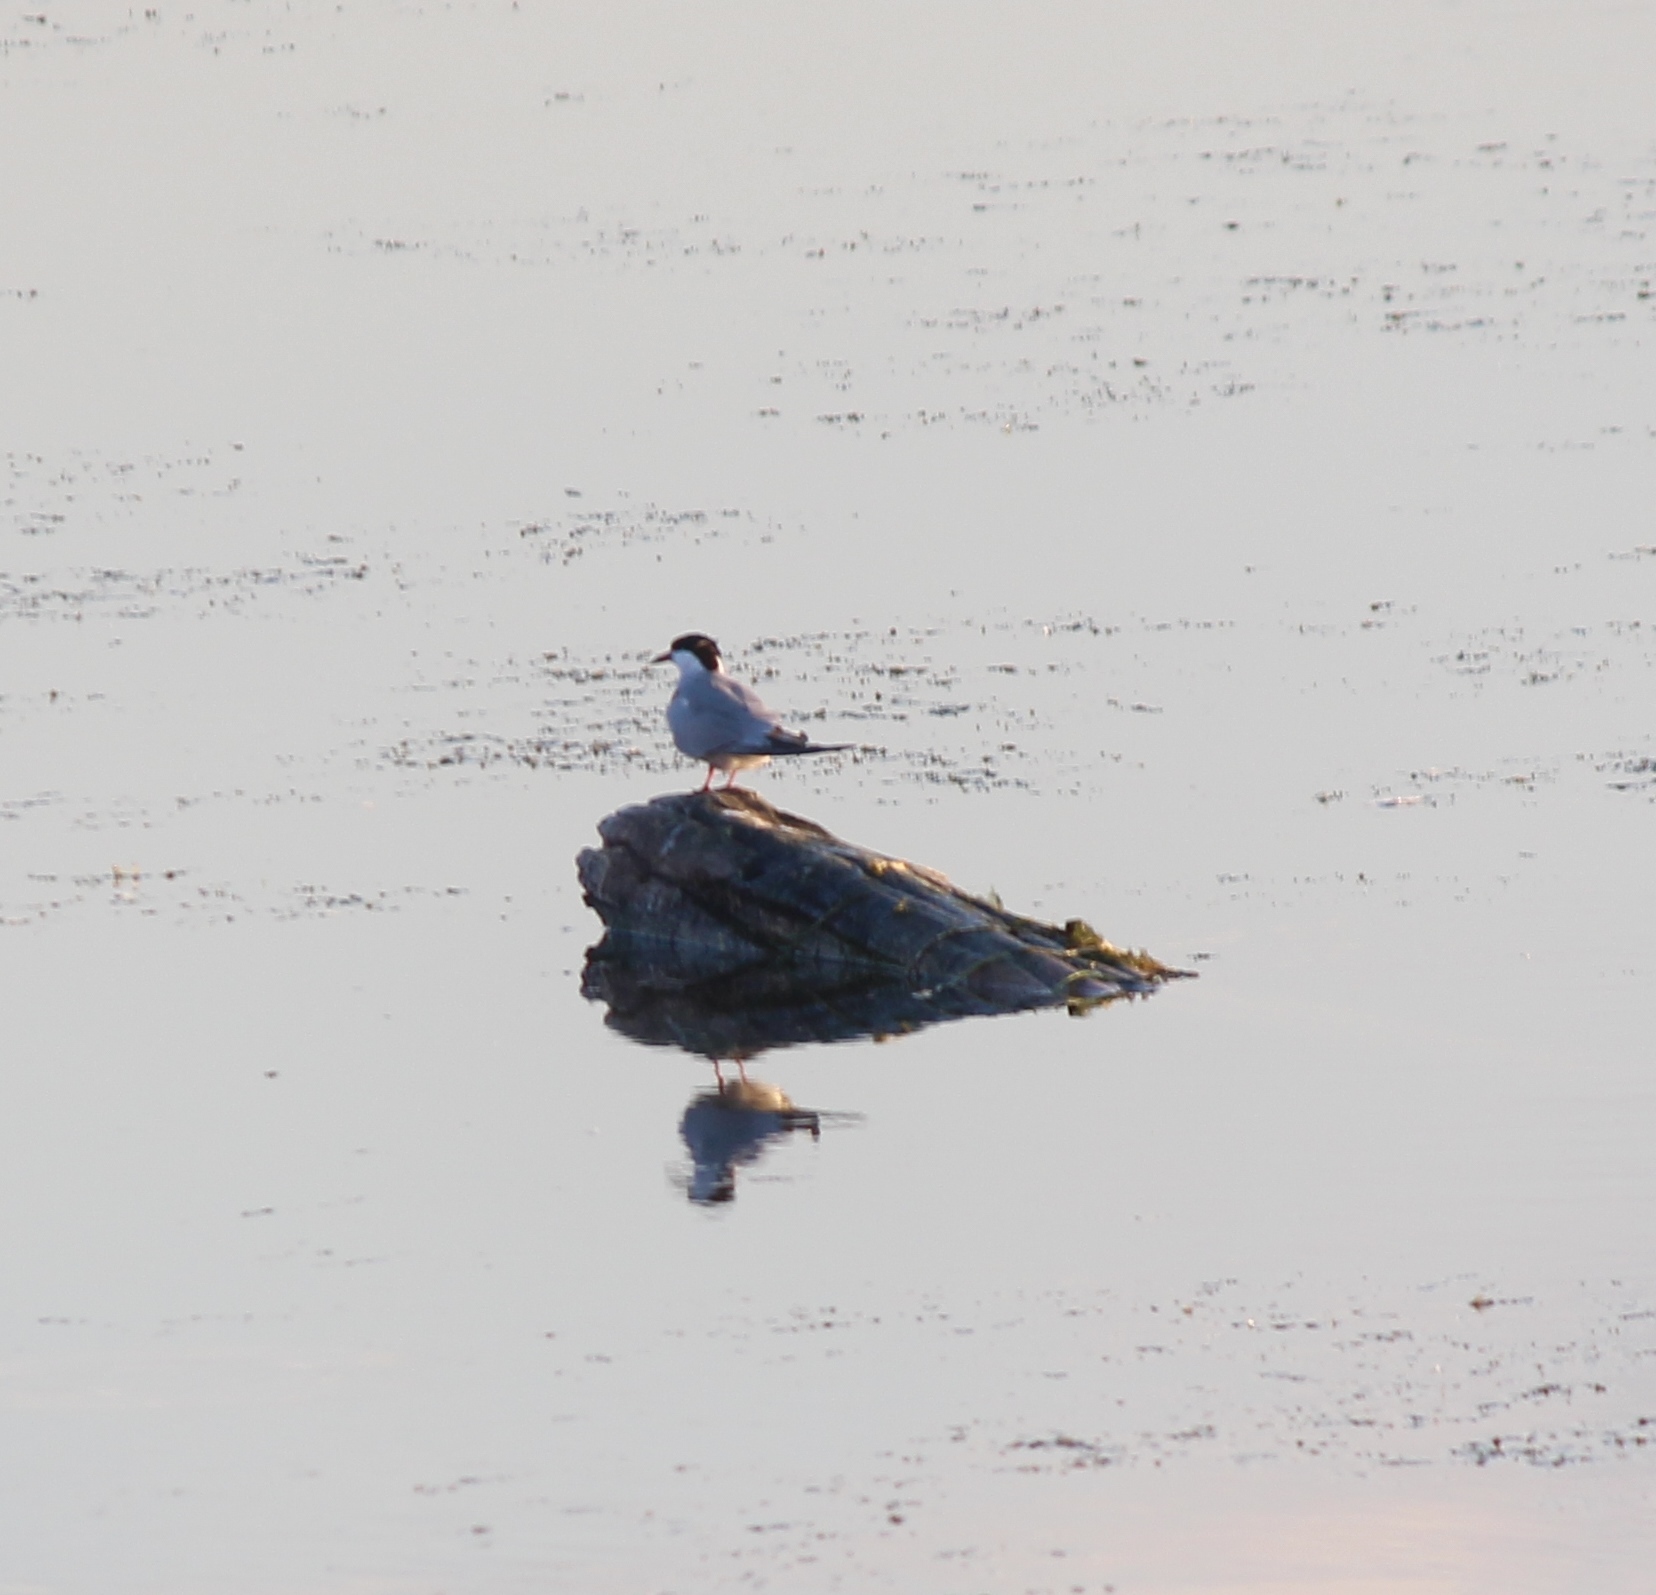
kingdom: Animalia
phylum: Chordata
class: Aves
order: Charadriiformes
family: Laridae
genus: Sterna
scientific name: Sterna hirundo
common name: Common tern
